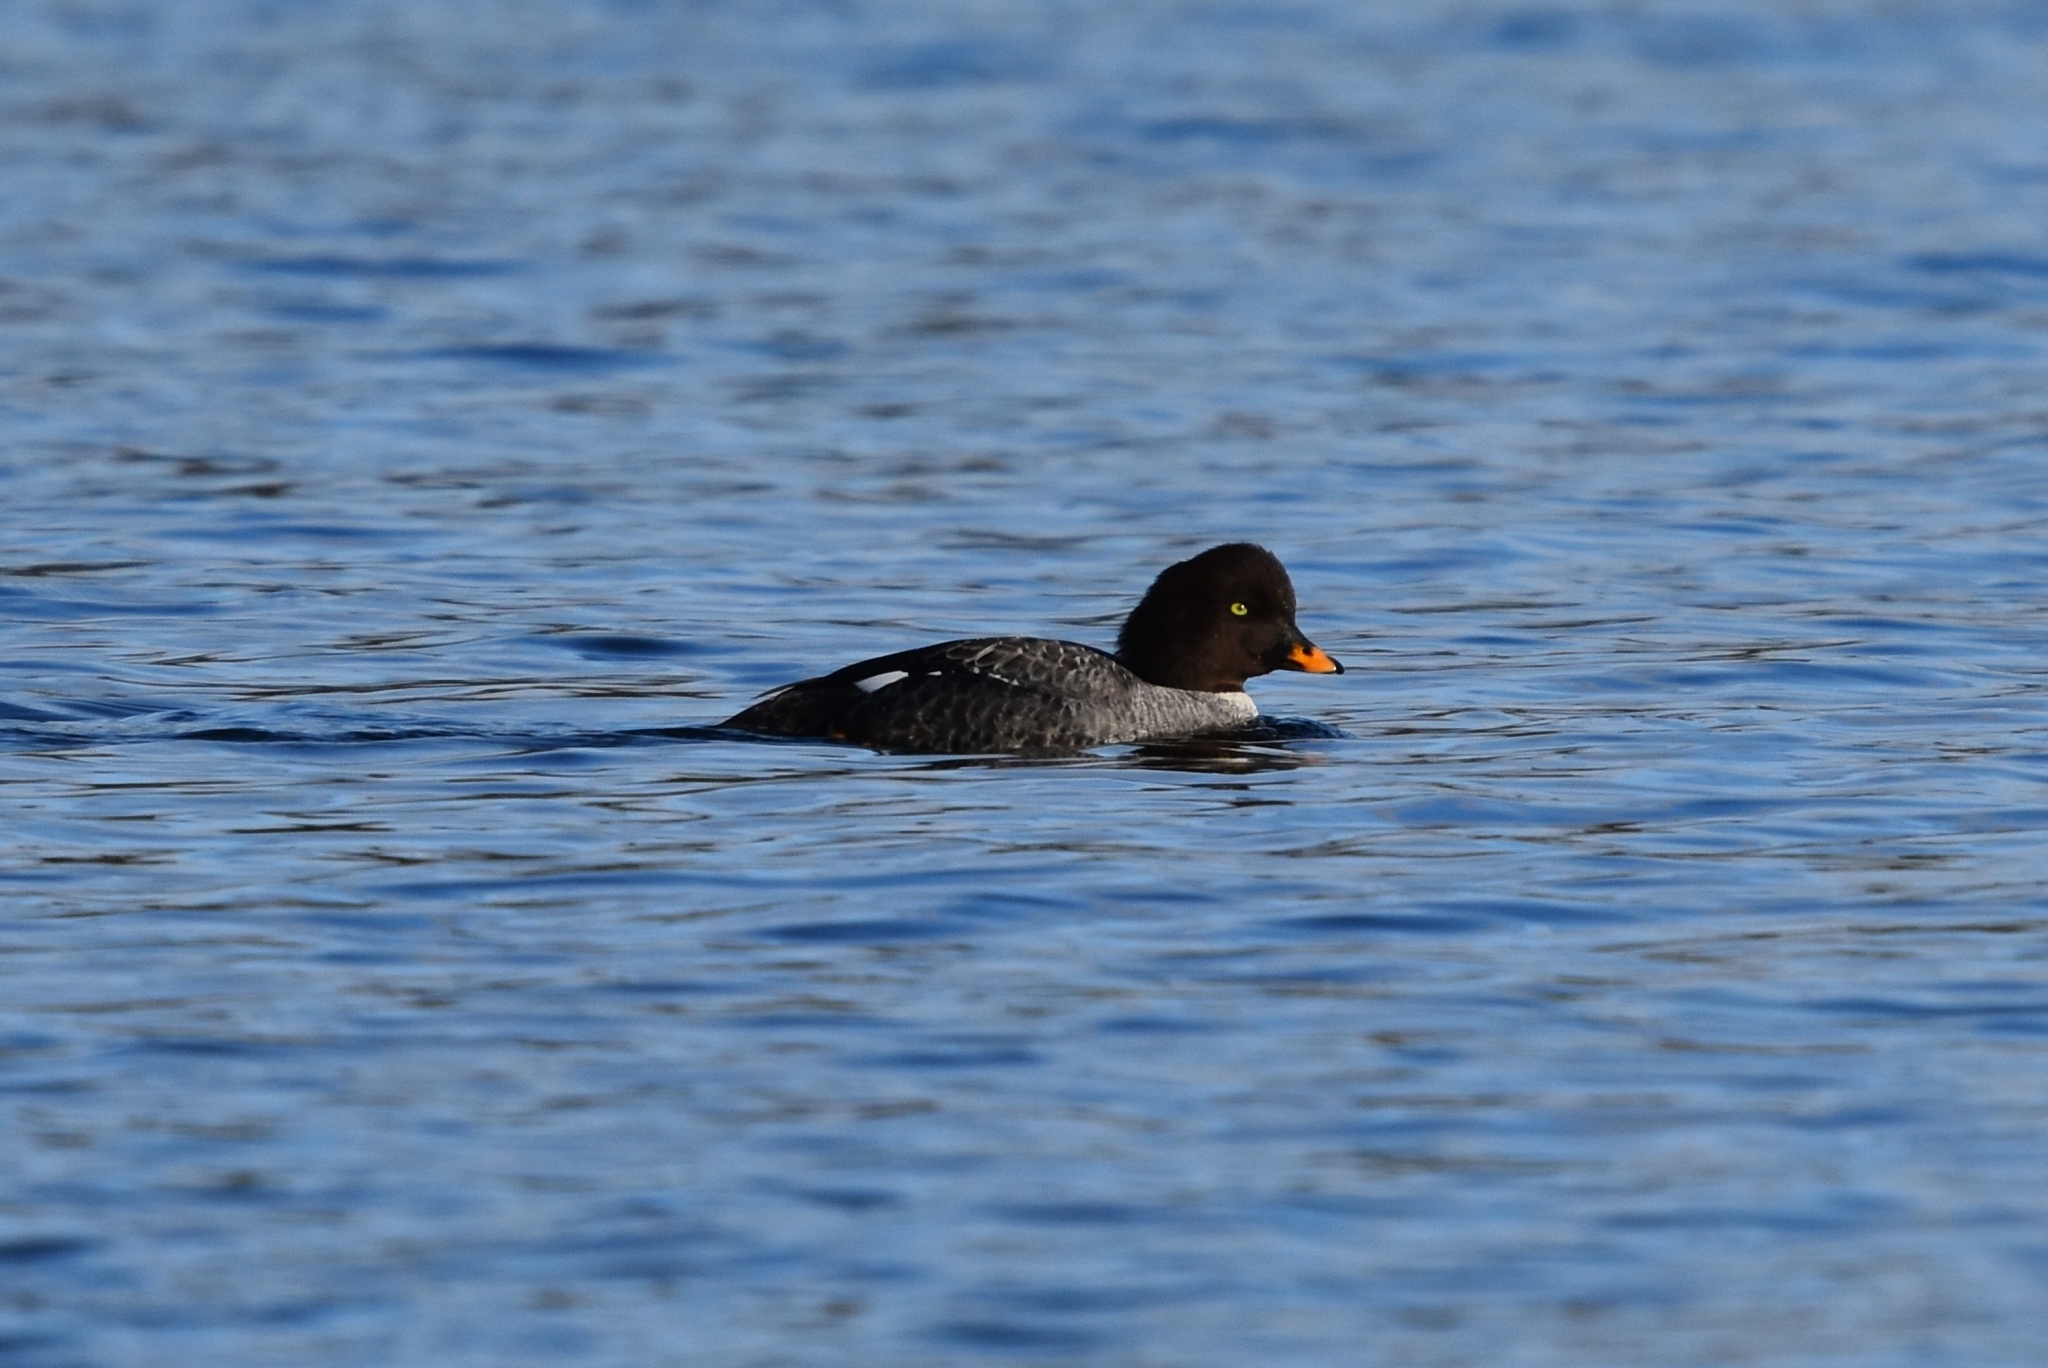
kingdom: Animalia
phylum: Chordata
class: Aves
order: Anseriformes
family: Anatidae
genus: Bucephala
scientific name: Bucephala islandica
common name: Barrow's goldeneye
